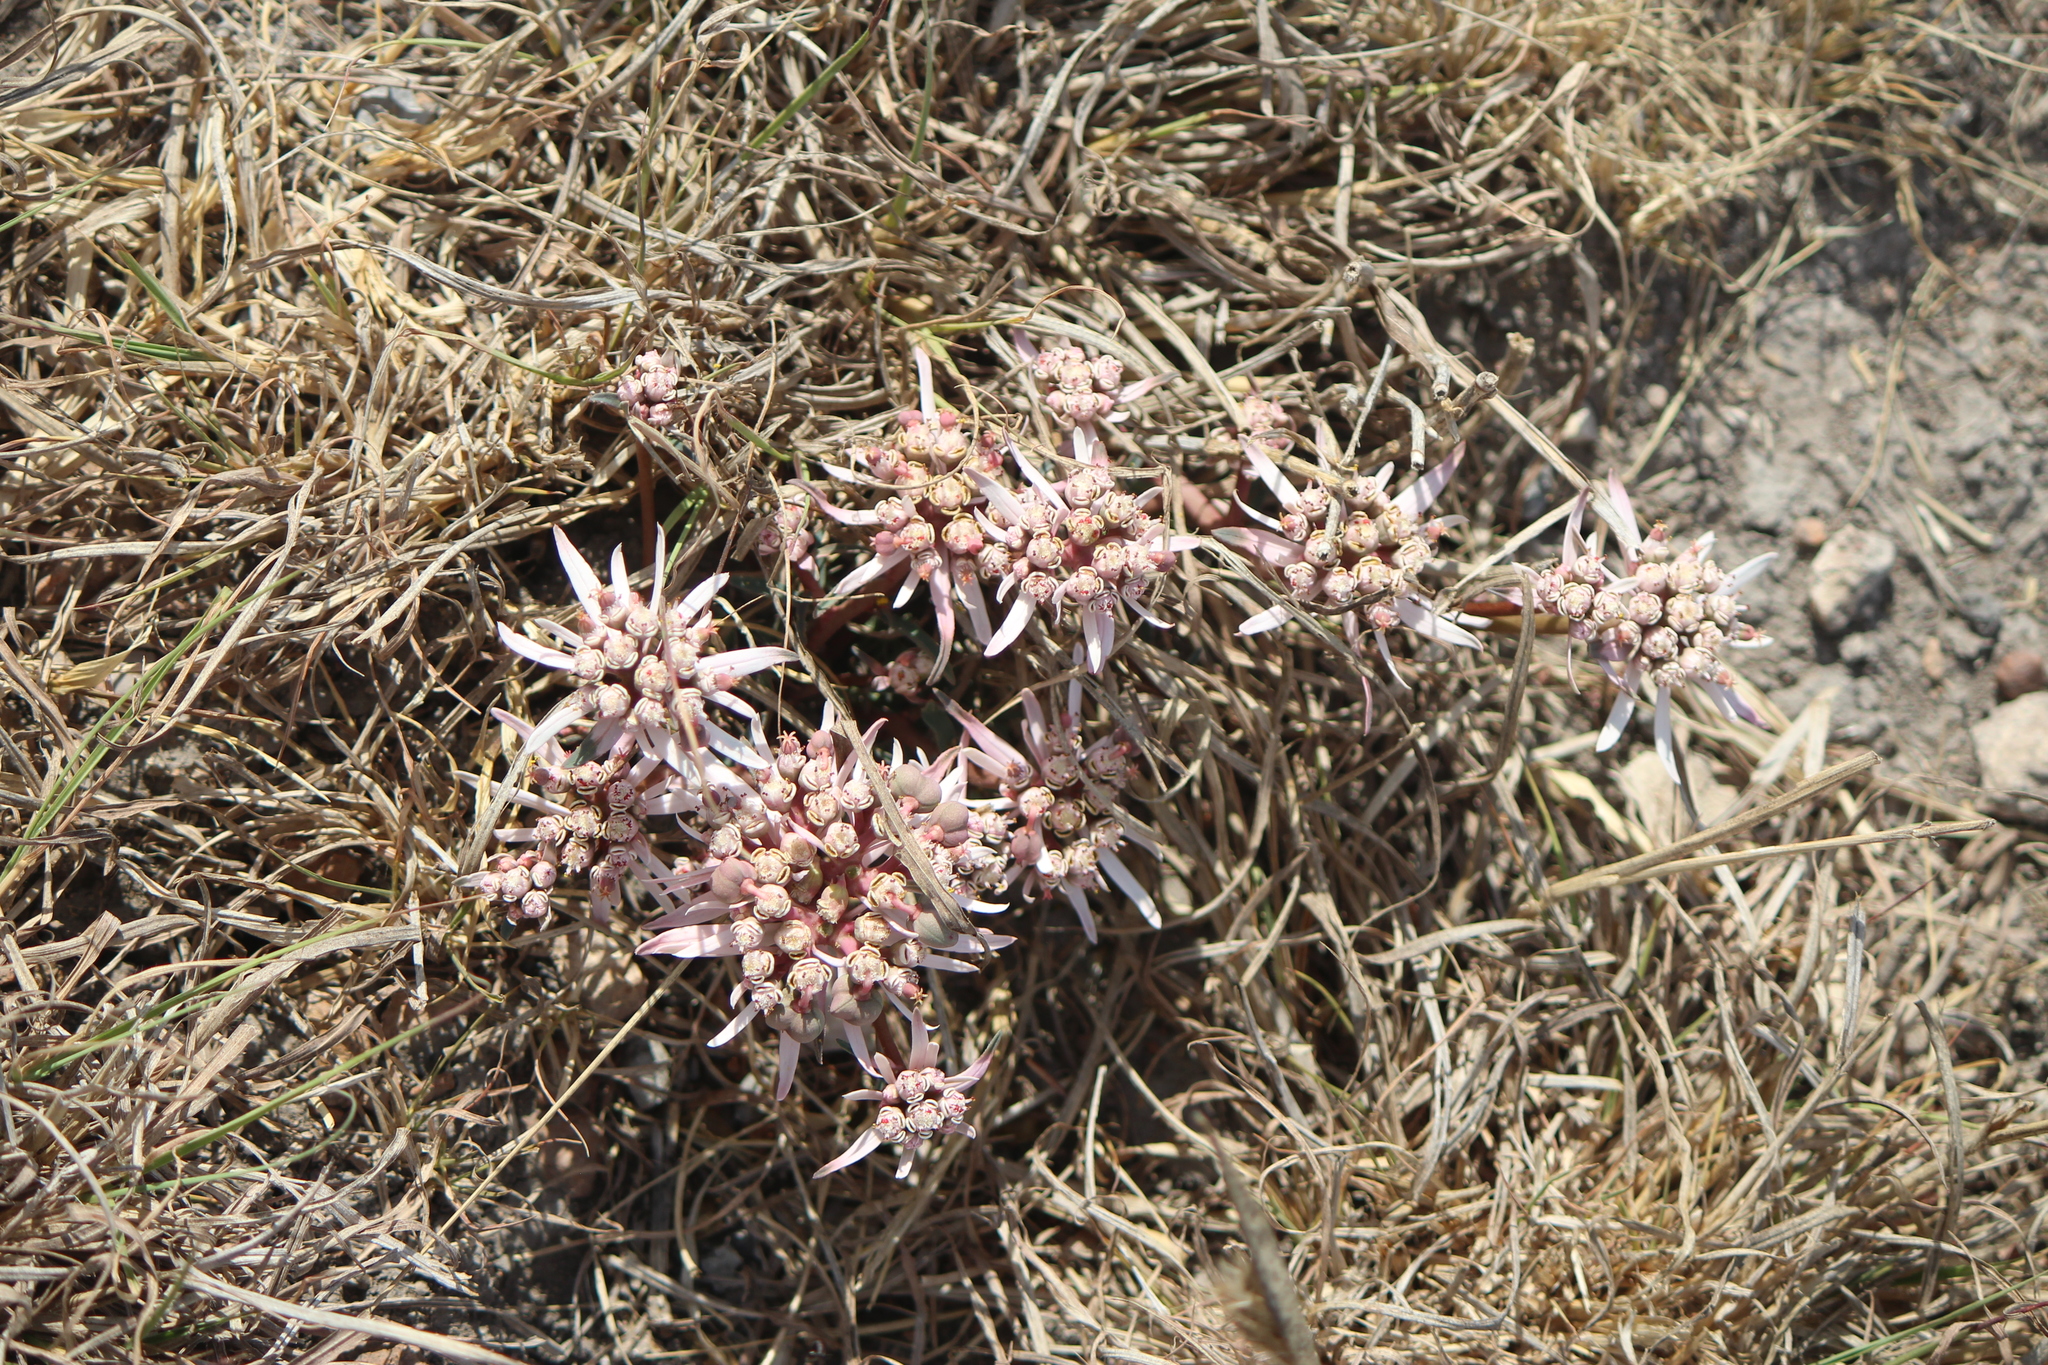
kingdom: Plantae
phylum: Tracheophyta
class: Magnoliopsida
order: Malpighiales
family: Euphorbiaceae
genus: Euphorbia
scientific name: Euphorbia radians
